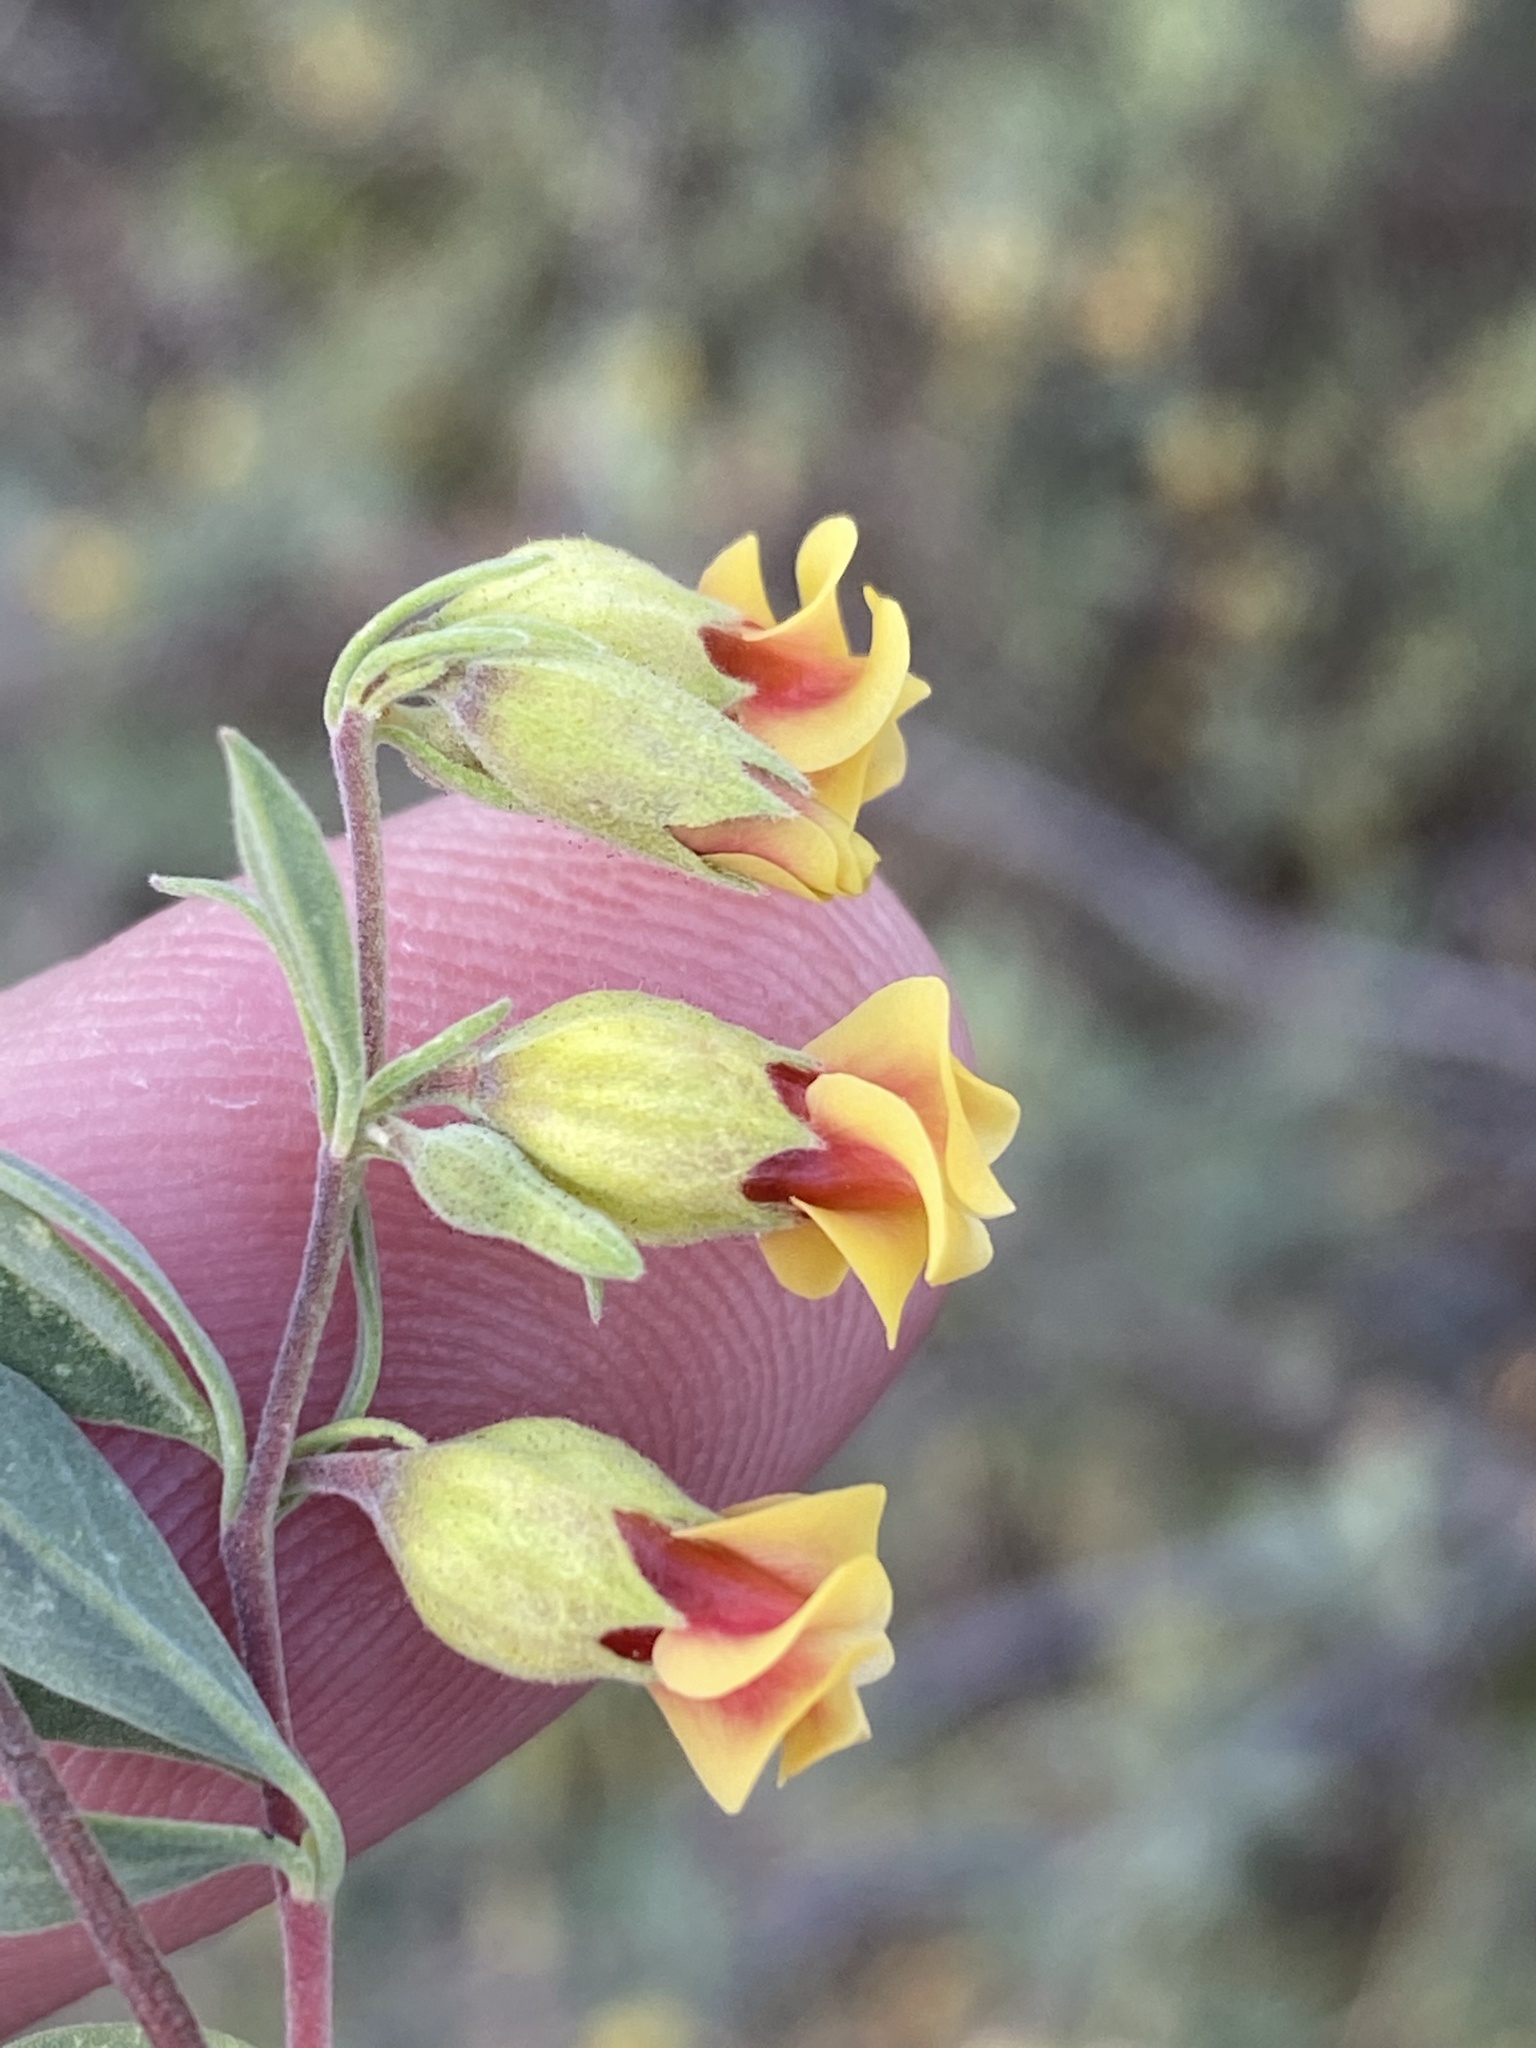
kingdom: Plantae
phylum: Tracheophyta
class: Magnoliopsida
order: Malvales
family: Malvaceae
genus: Hermannia
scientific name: Hermannia gracilis
